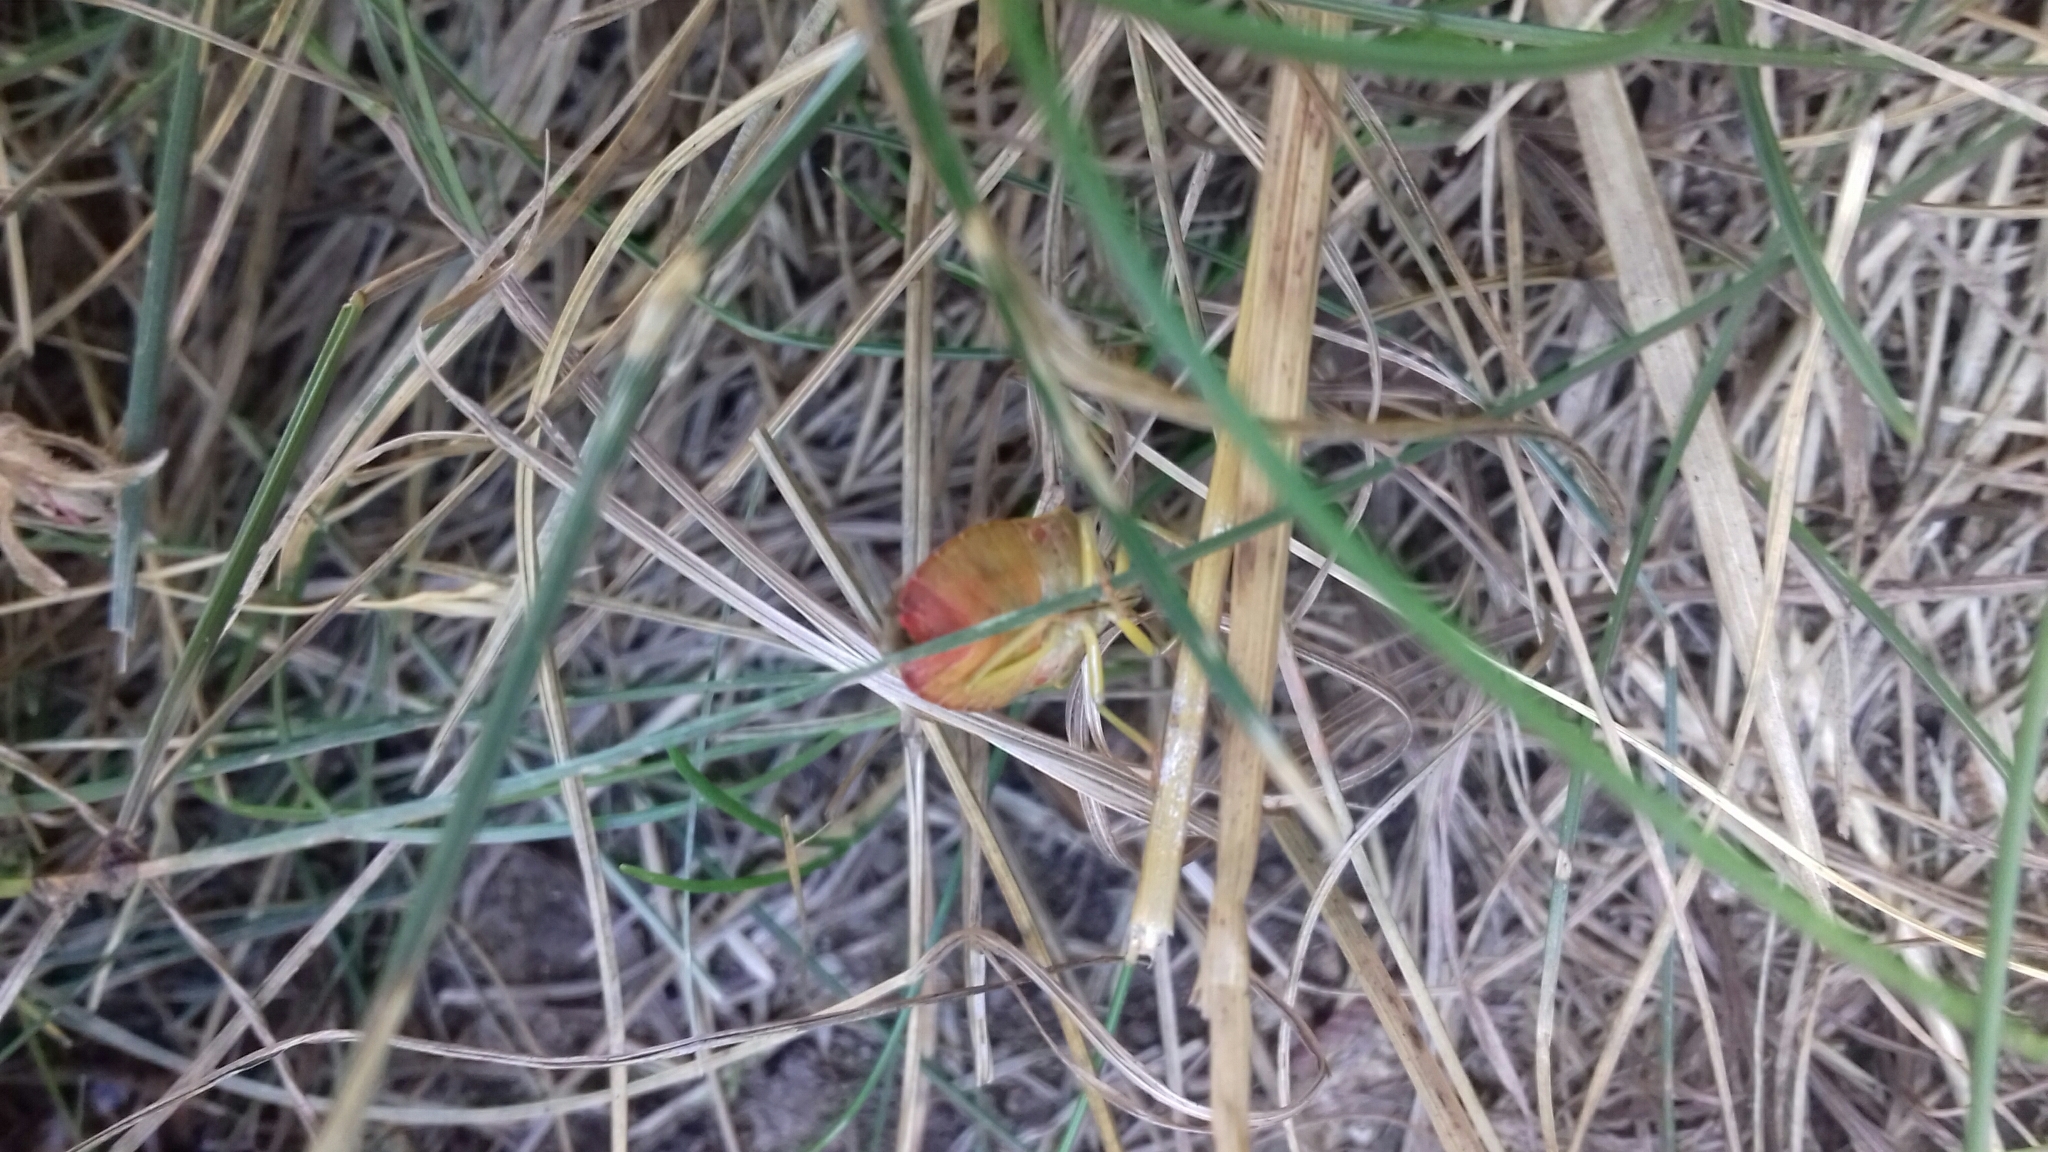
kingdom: Animalia
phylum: Arthropoda
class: Insecta
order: Hemiptera
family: Pentatomidae
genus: Palomena
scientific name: Palomena prasina
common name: Green shieldbug
